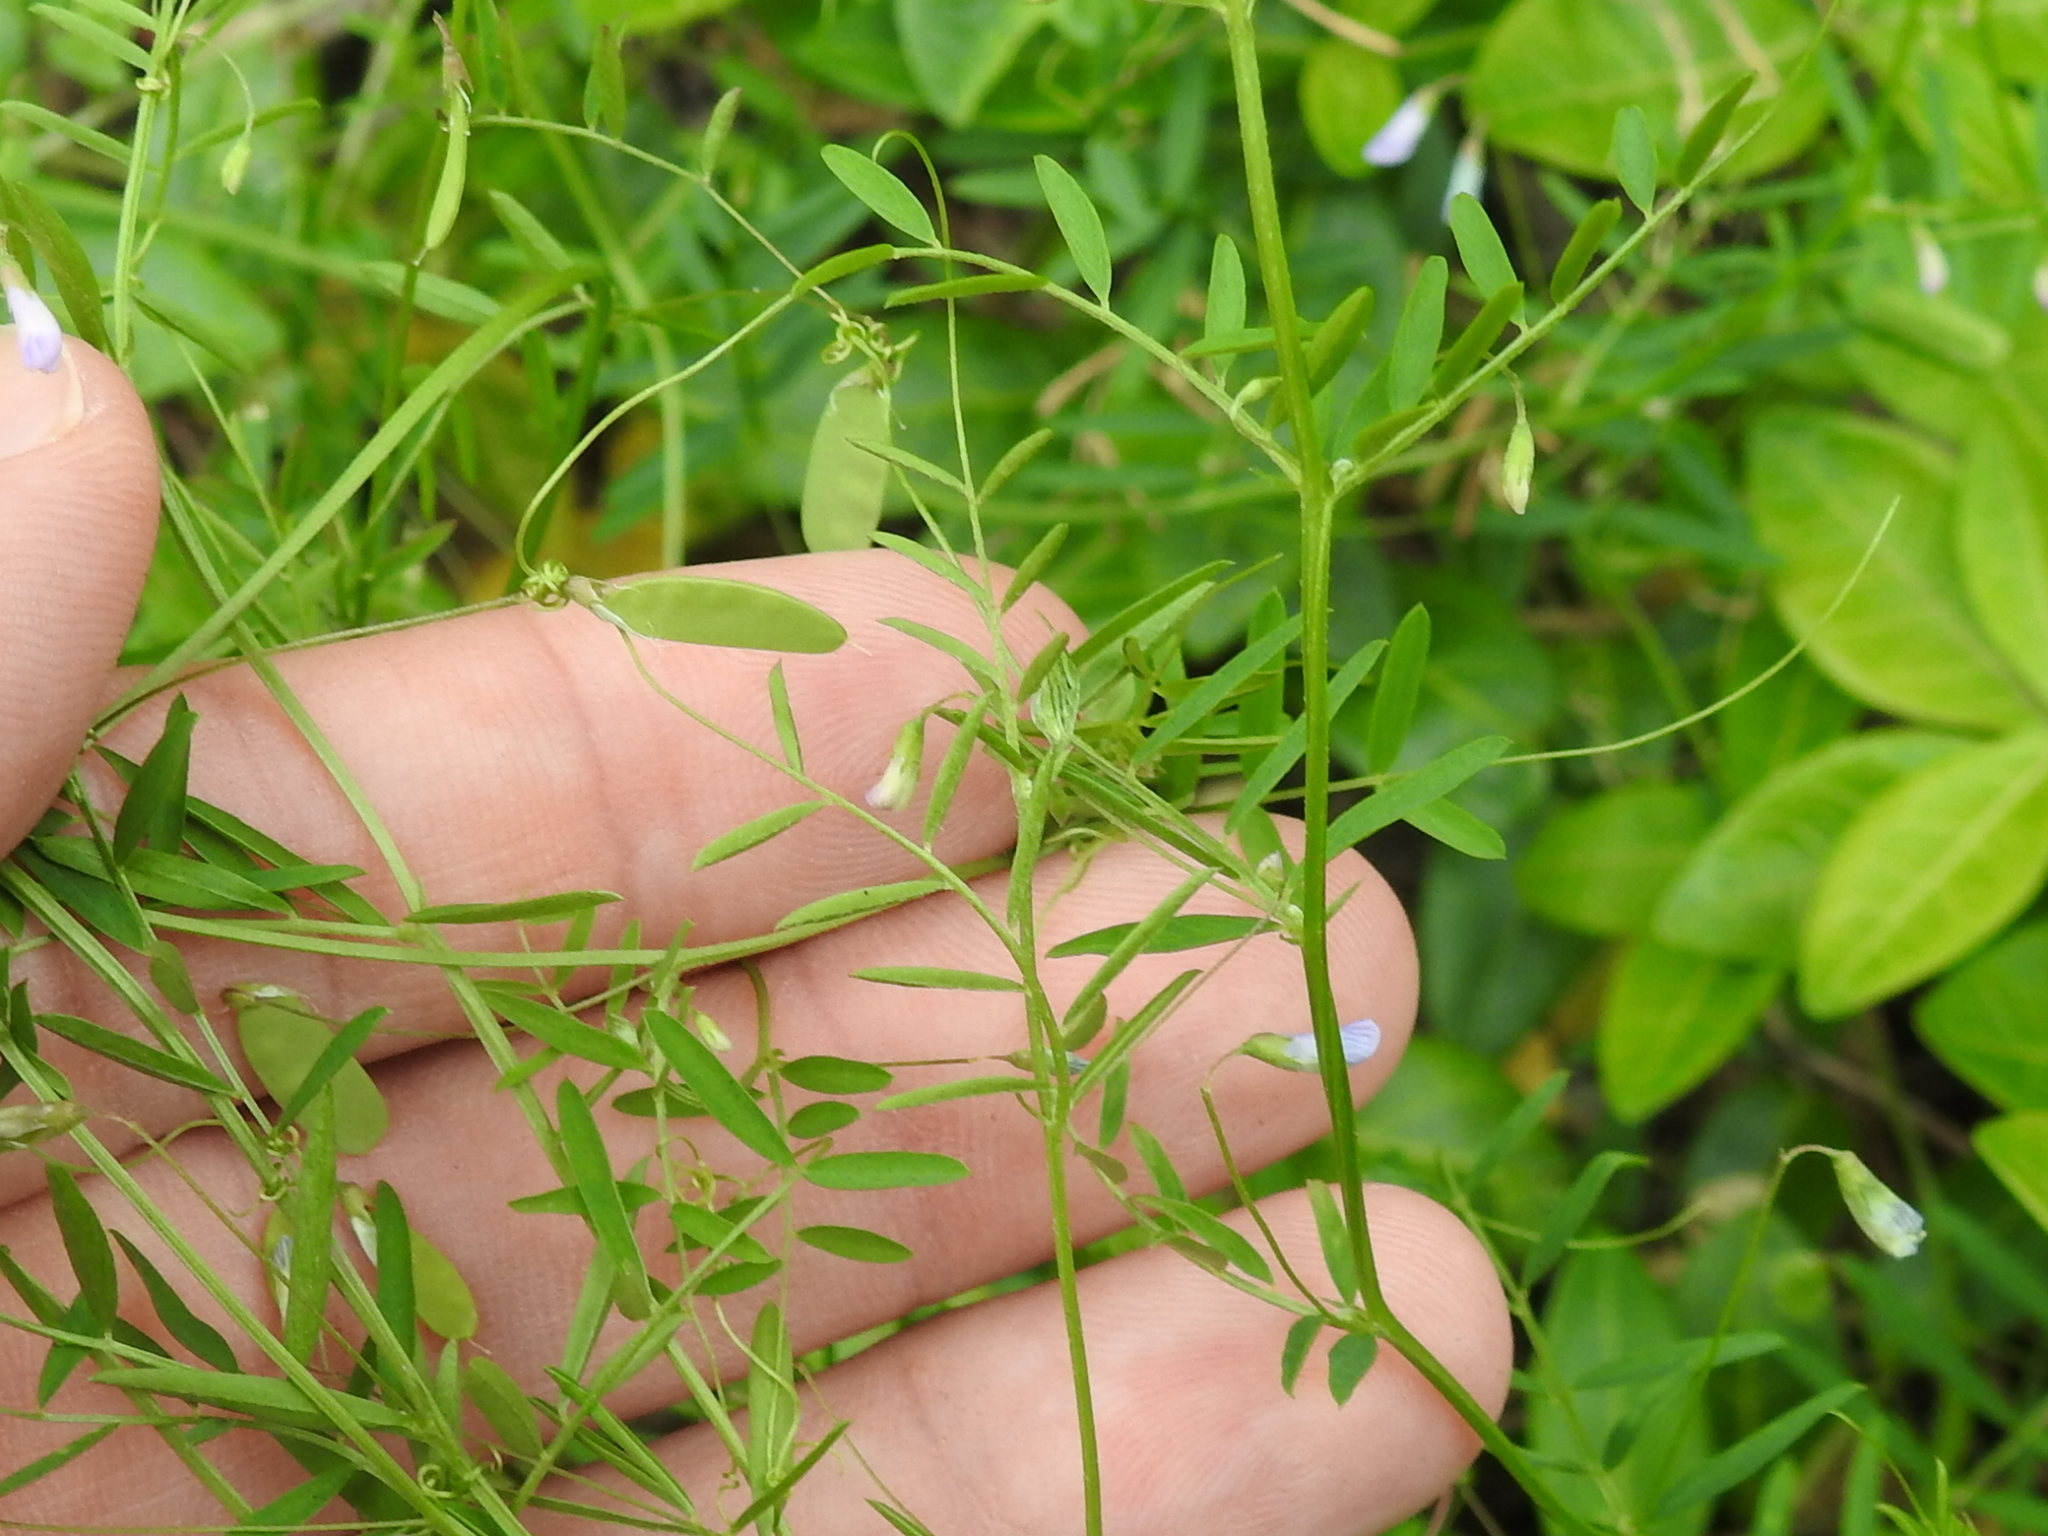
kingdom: Plantae
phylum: Tracheophyta
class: Magnoliopsida
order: Fabales
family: Fabaceae
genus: Vicia
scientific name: Vicia tetrasperma
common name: Smooth tare
